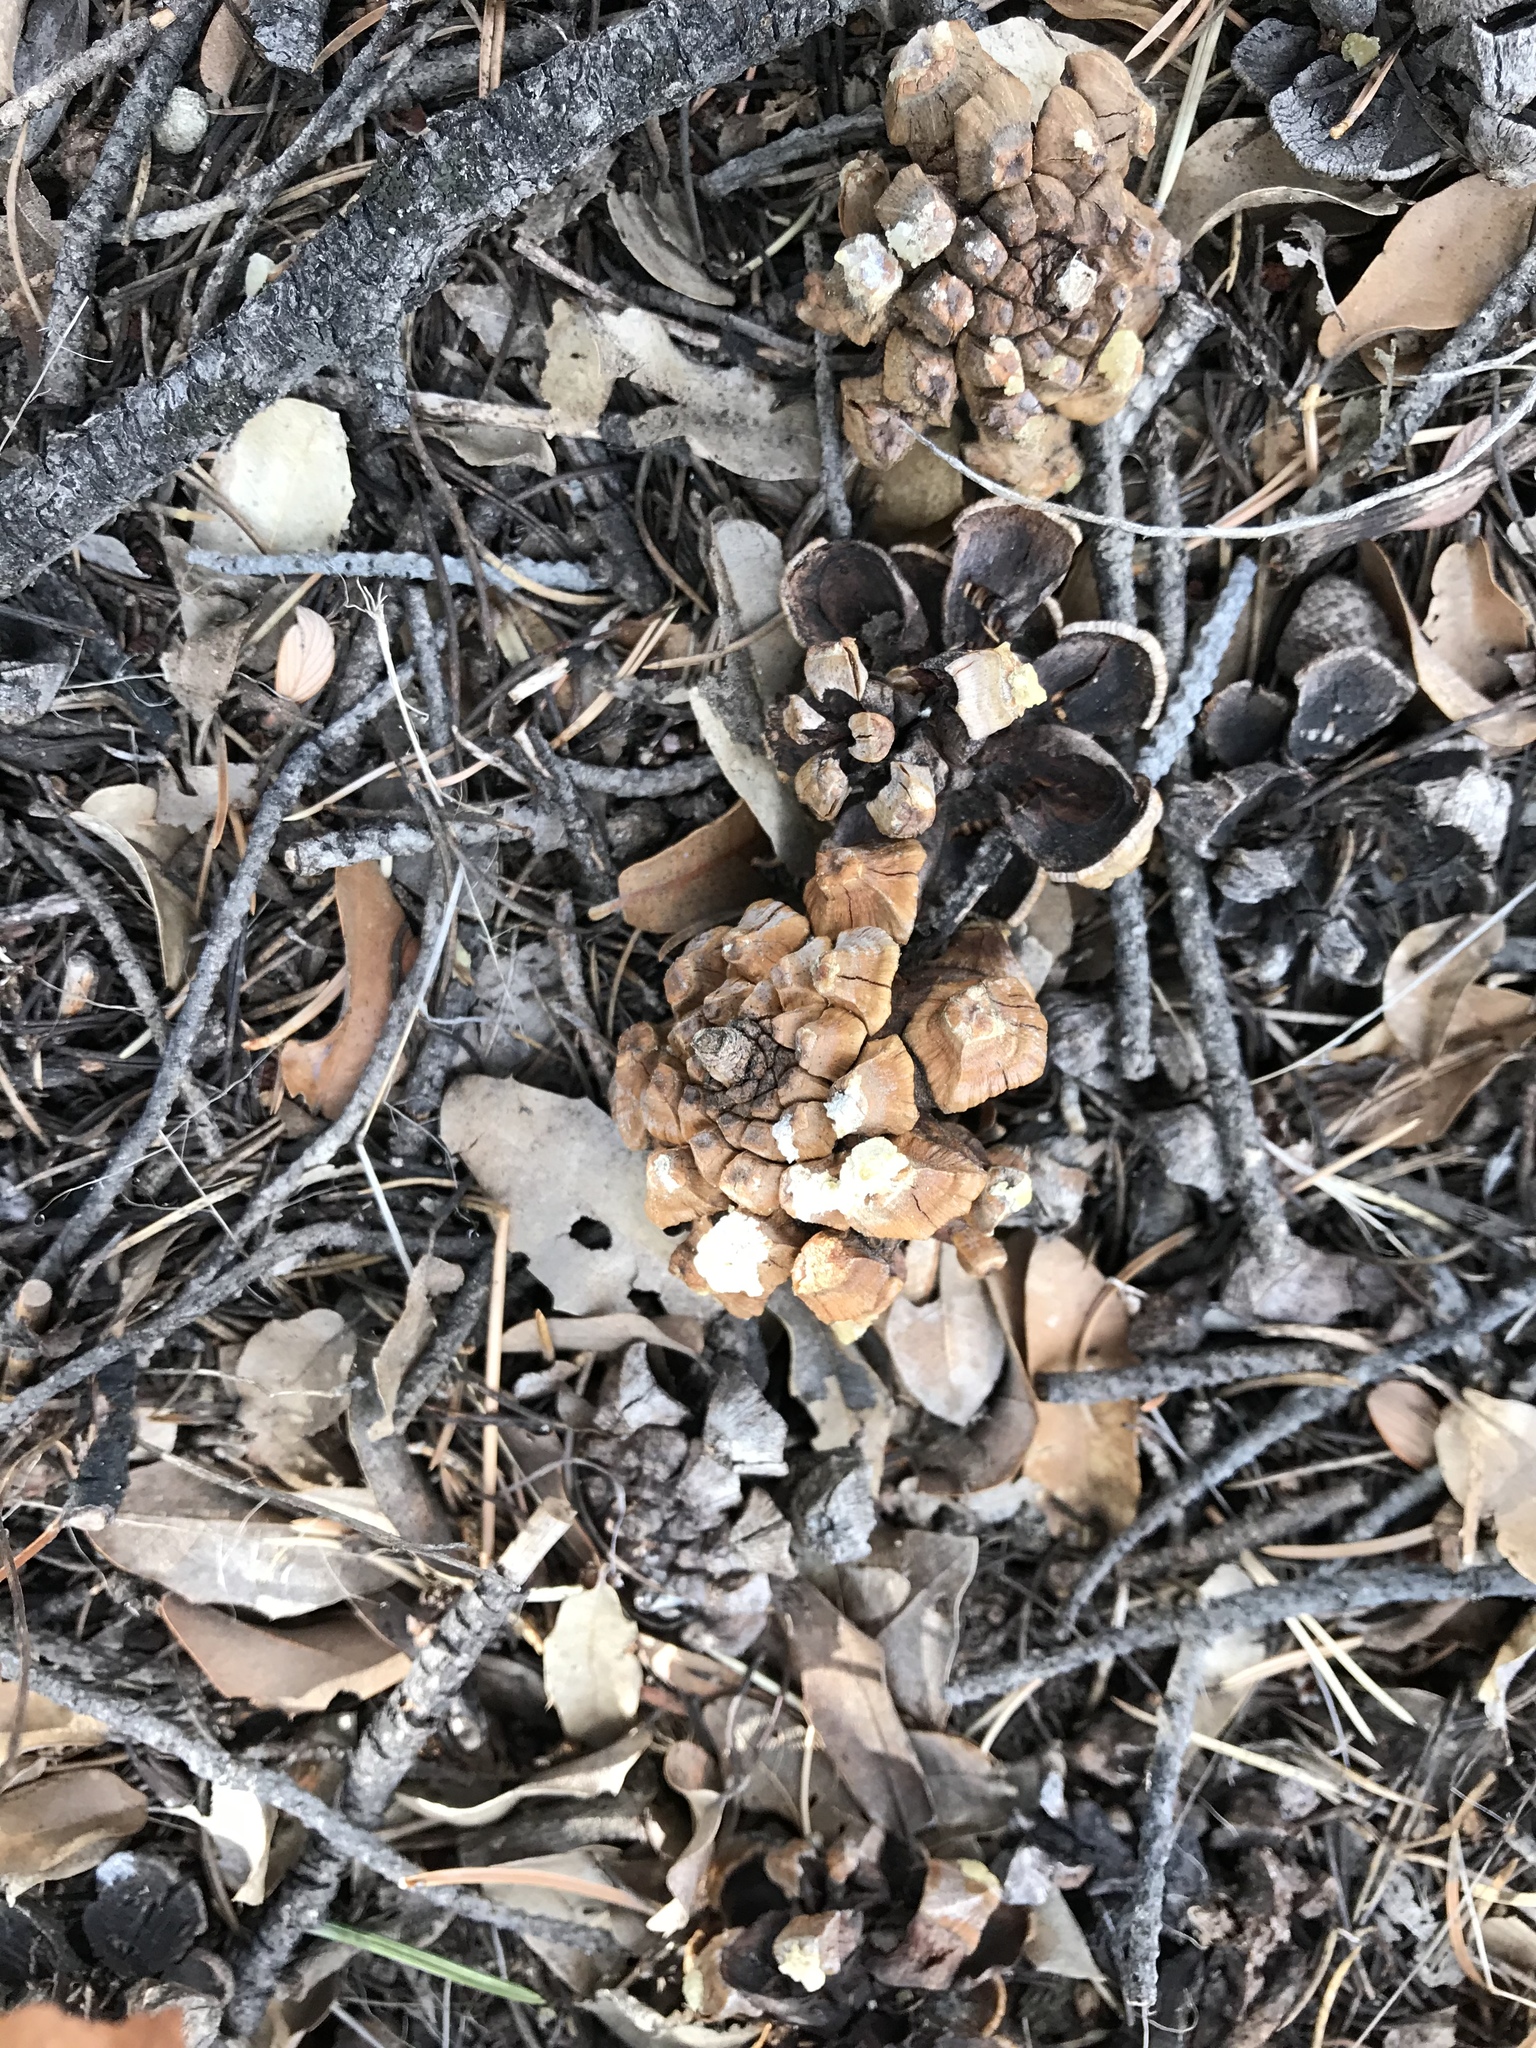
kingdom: Plantae
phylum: Tracheophyta
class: Pinopsida
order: Pinales
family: Pinaceae
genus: Pinus
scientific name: Pinus edulis
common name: Colorado pinyon
